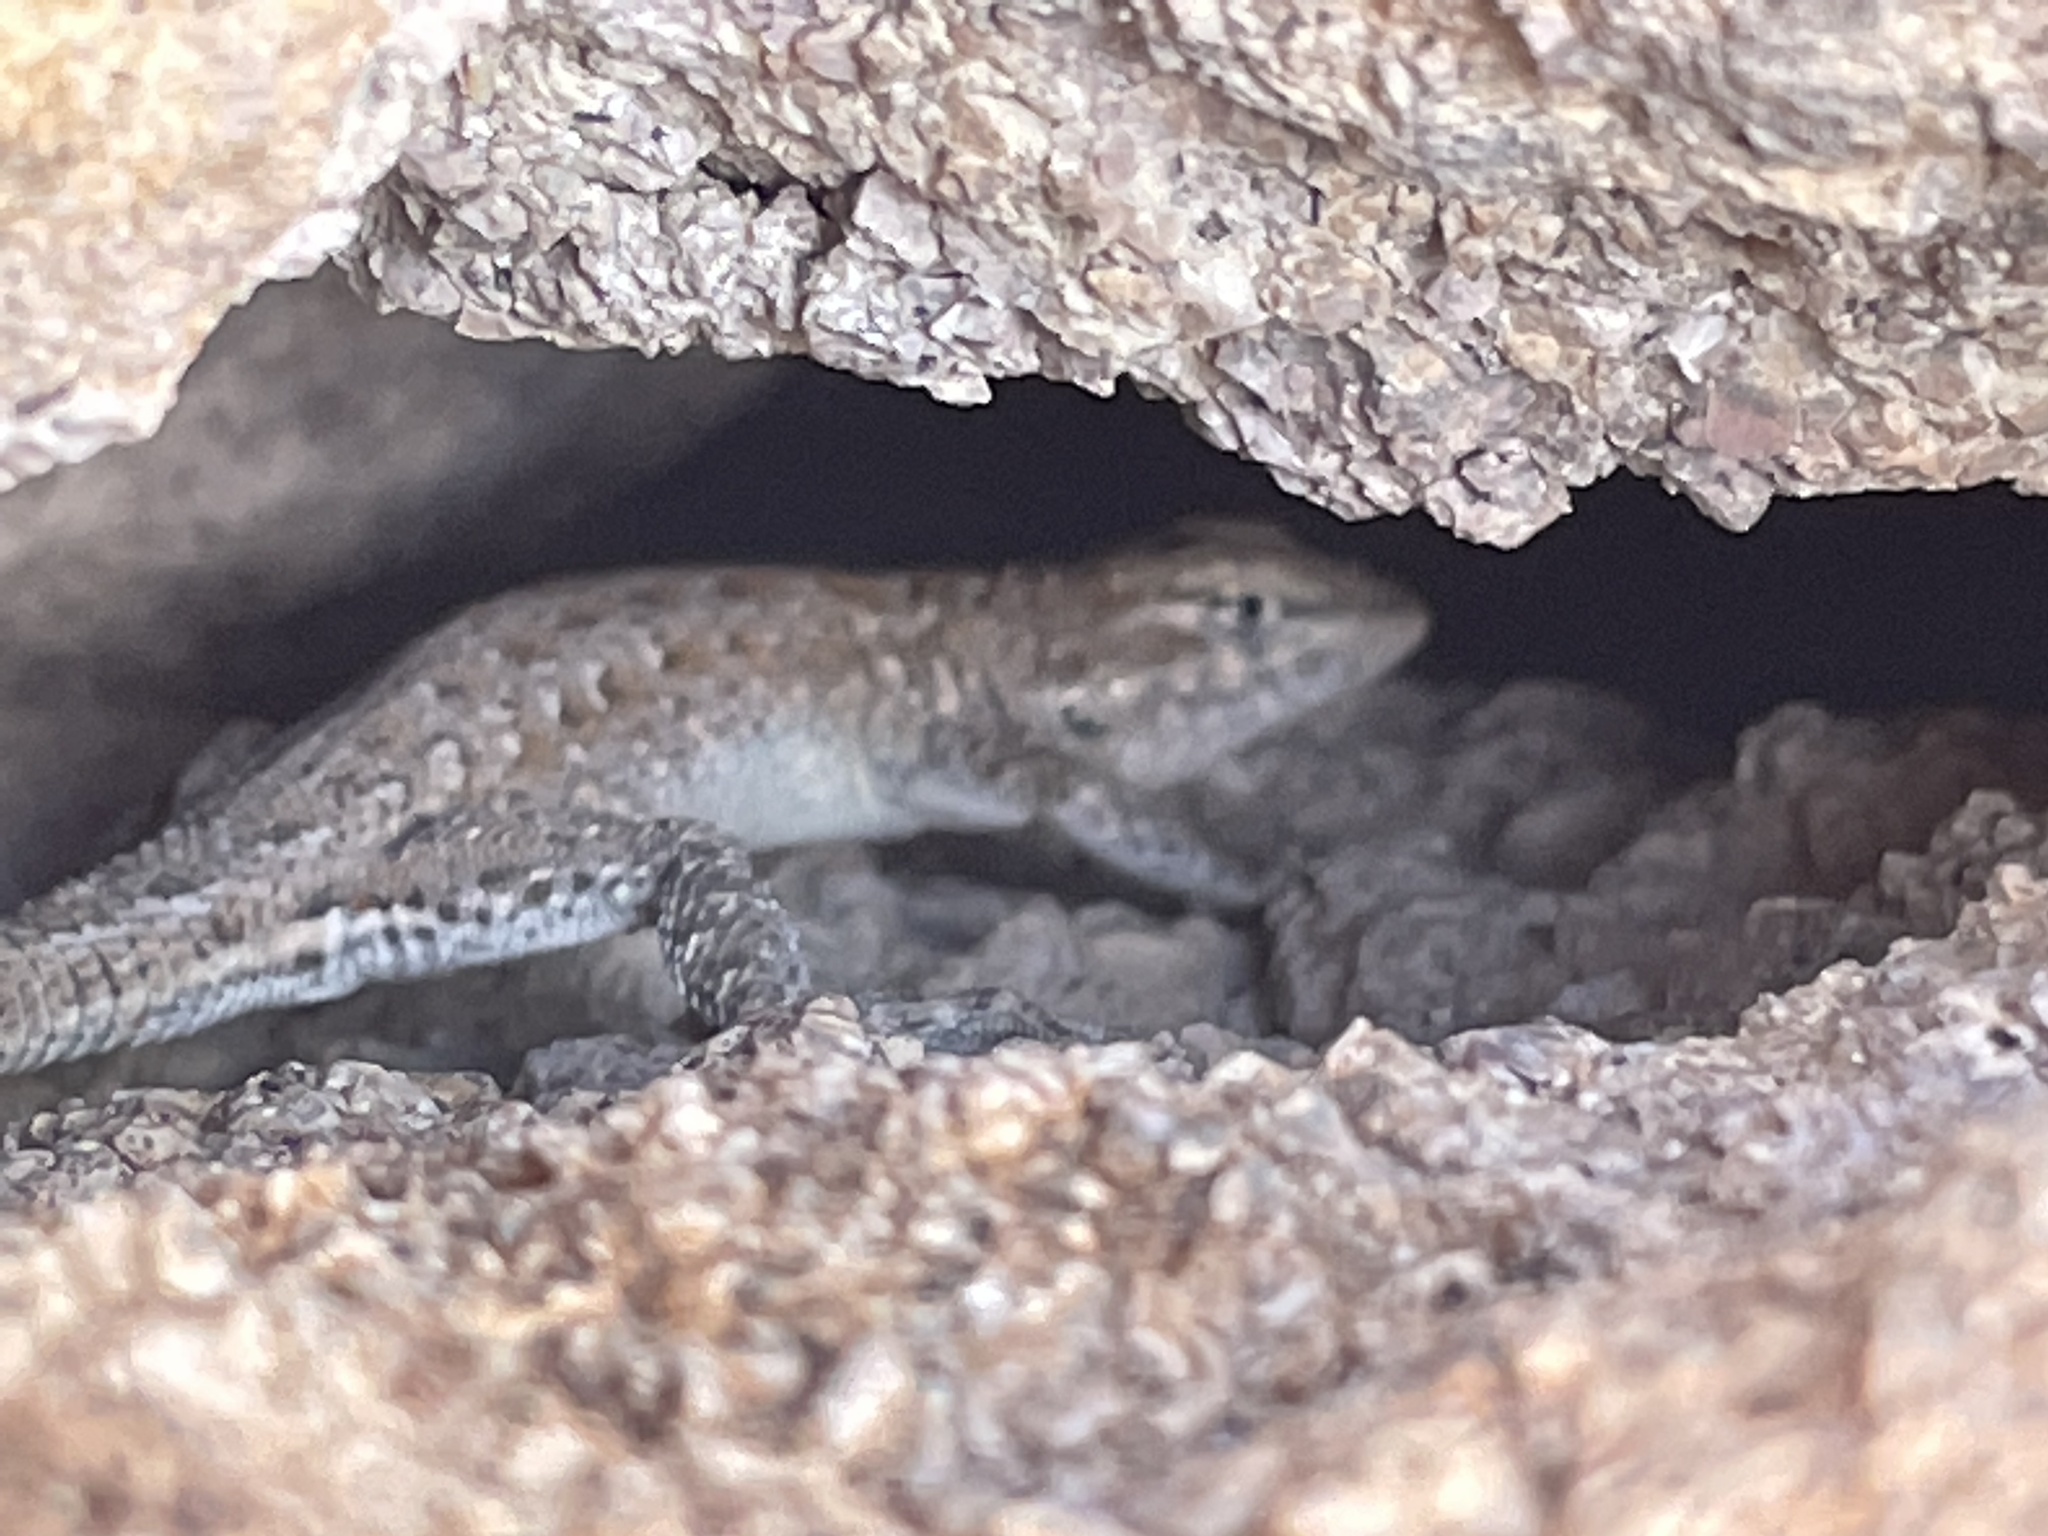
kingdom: Animalia
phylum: Chordata
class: Squamata
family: Phrynosomatidae
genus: Uta
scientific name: Uta stansburiana
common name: Side-blotched lizard
